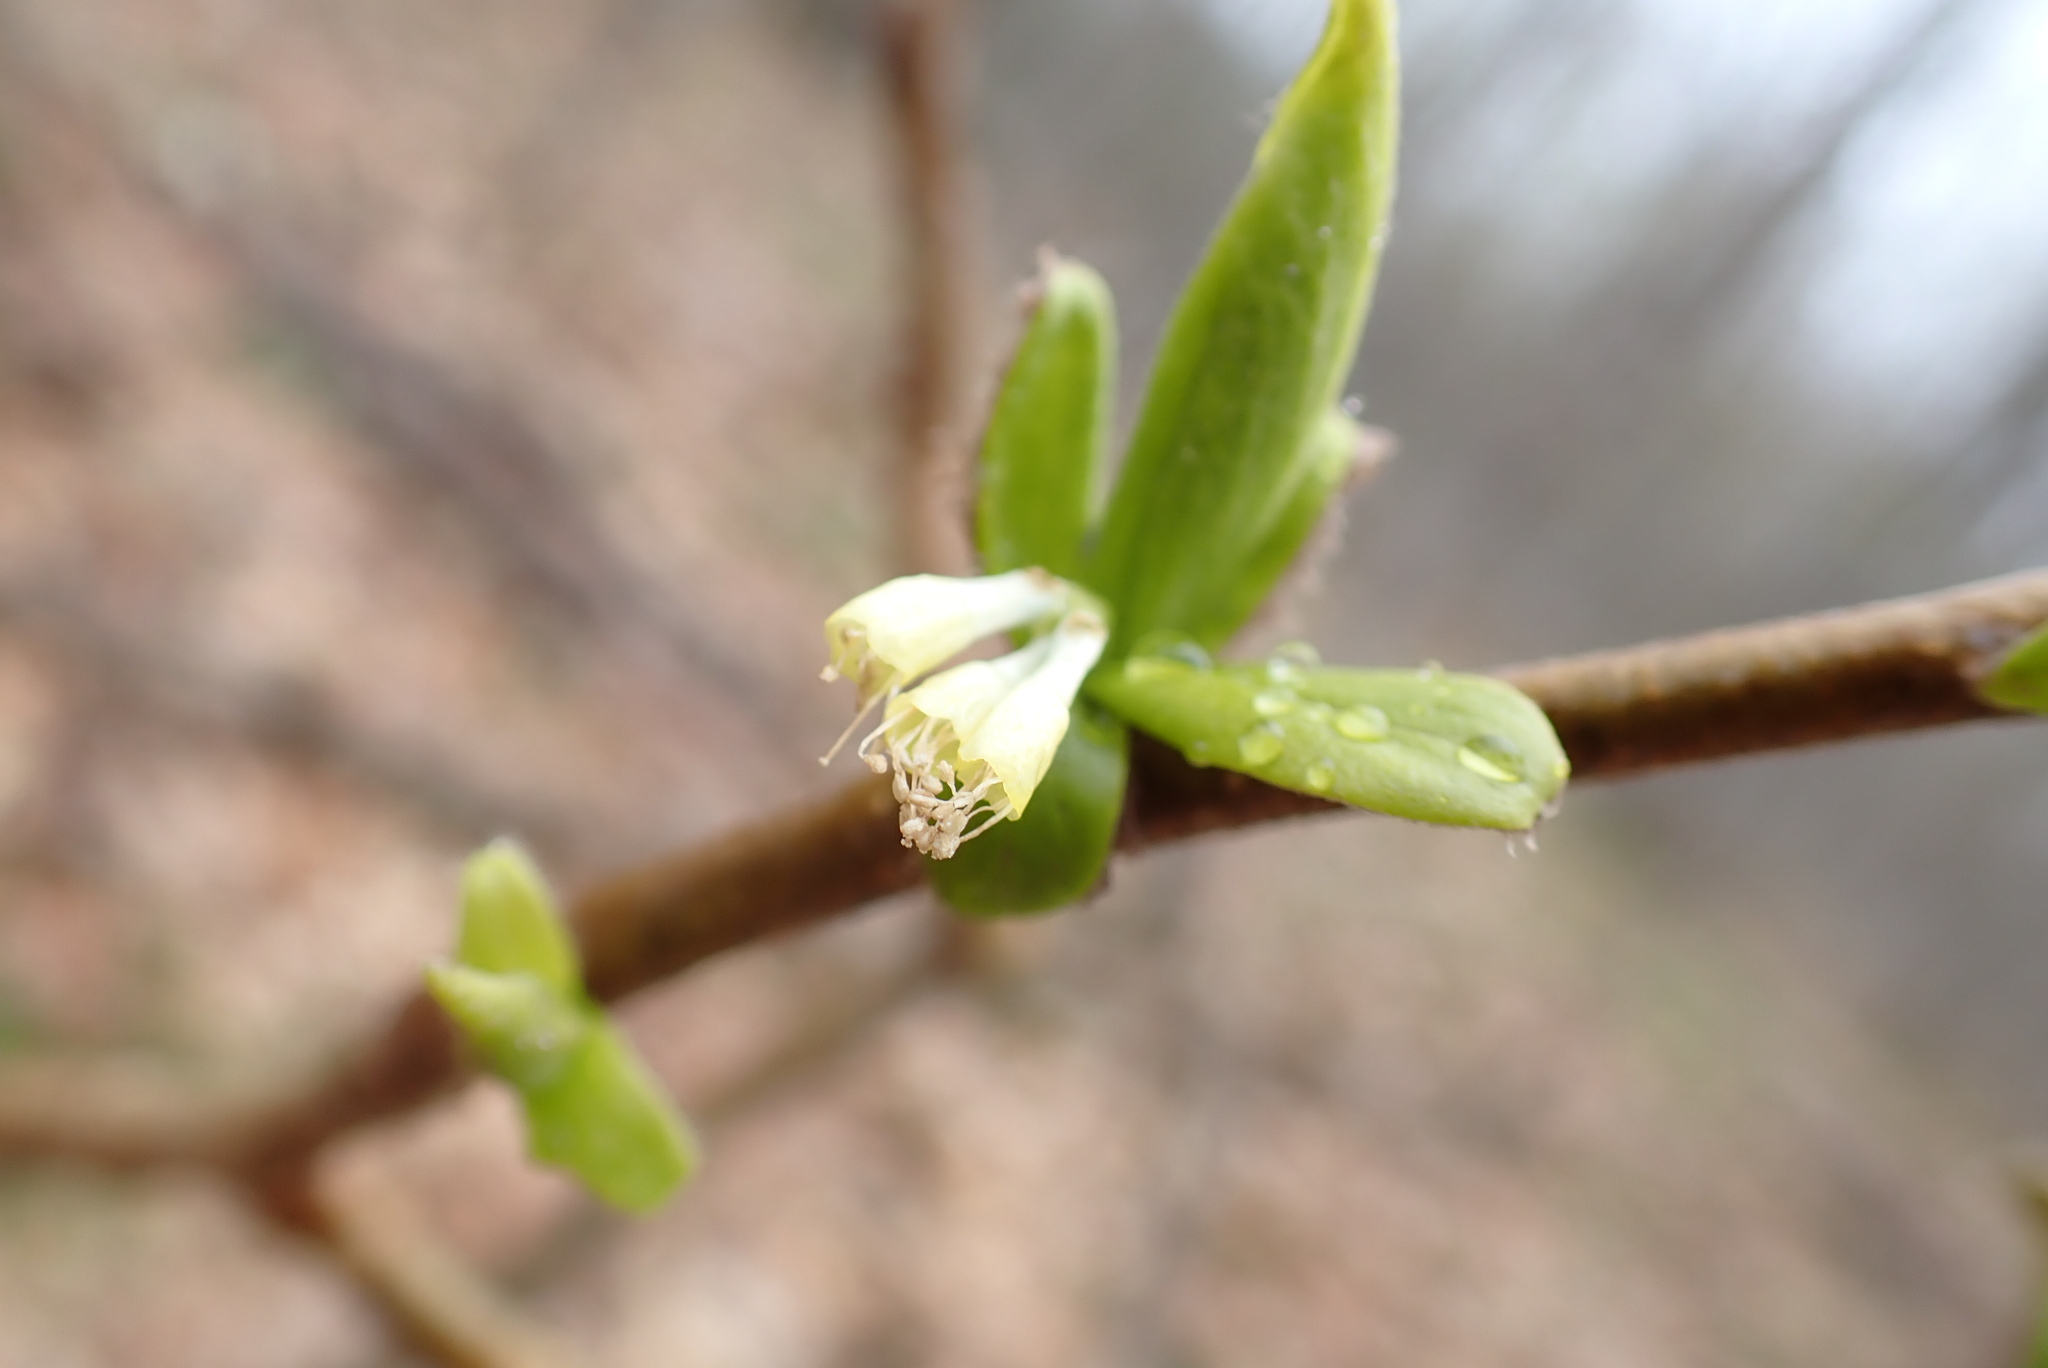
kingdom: Plantae
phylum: Tracheophyta
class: Magnoliopsida
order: Malvales
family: Thymelaeaceae
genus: Dirca
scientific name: Dirca palustris
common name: Leatherwood
